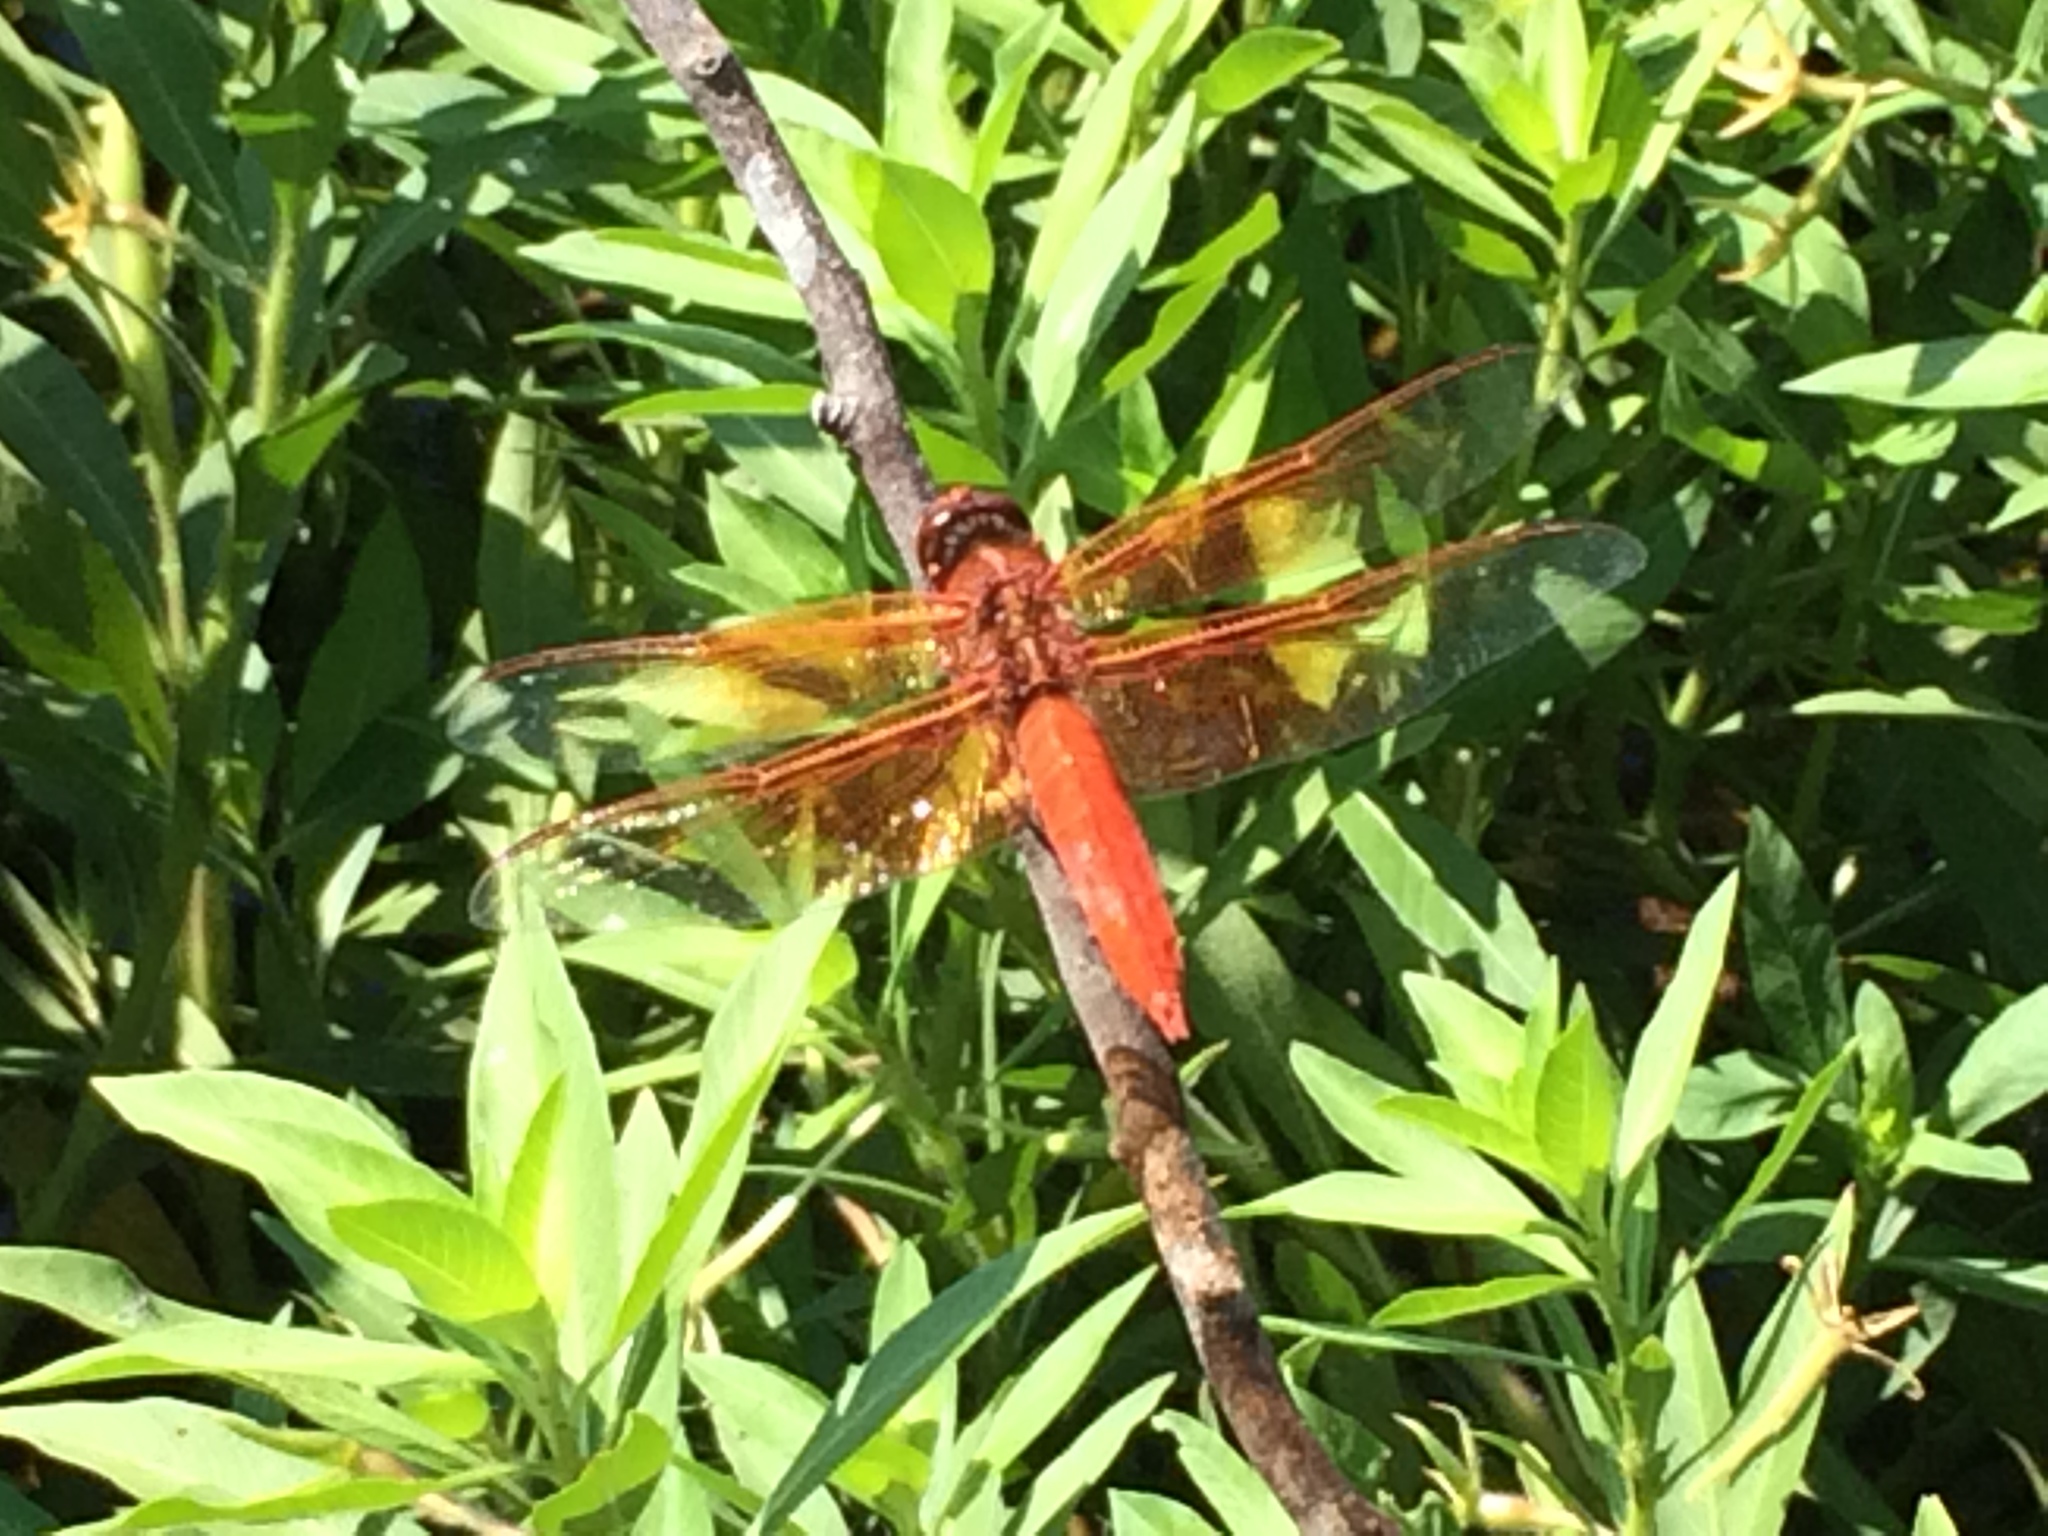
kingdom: Animalia
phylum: Arthropoda
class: Insecta
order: Odonata
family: Libellulidae
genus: Libellula
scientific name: Libellula saturata
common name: Flame skimmer
